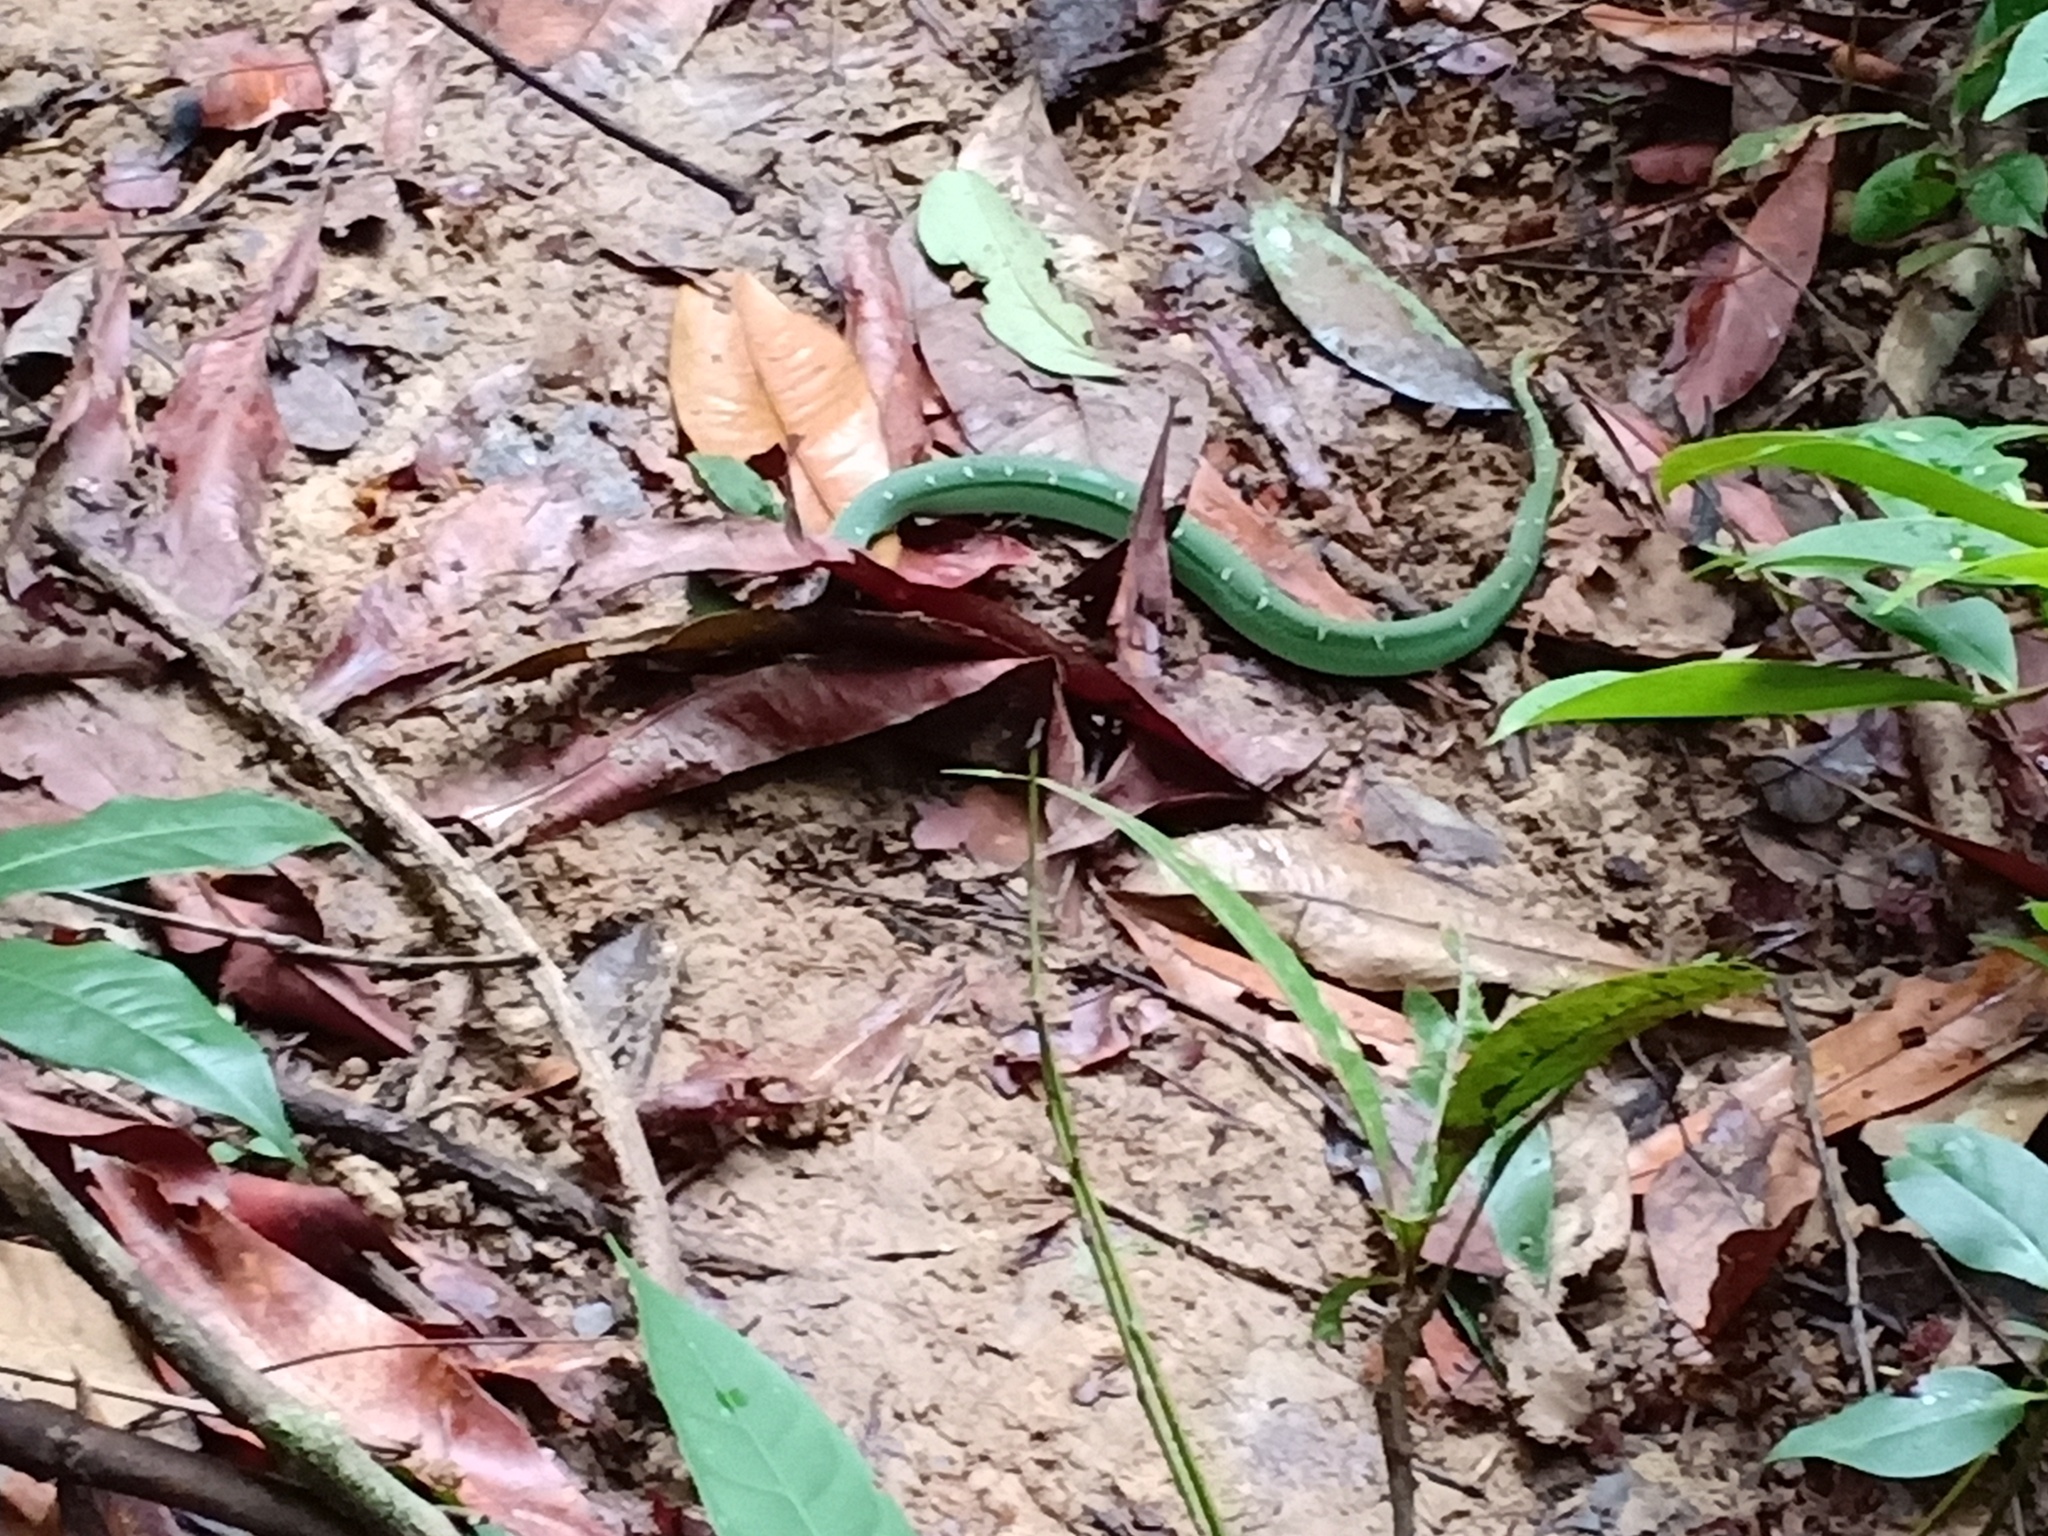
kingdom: Animalia
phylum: Chordata
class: Squamata
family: Viperidae
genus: Tropidolaemus
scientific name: Tropidolaemus wagleri
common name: Wagler's palm viper
